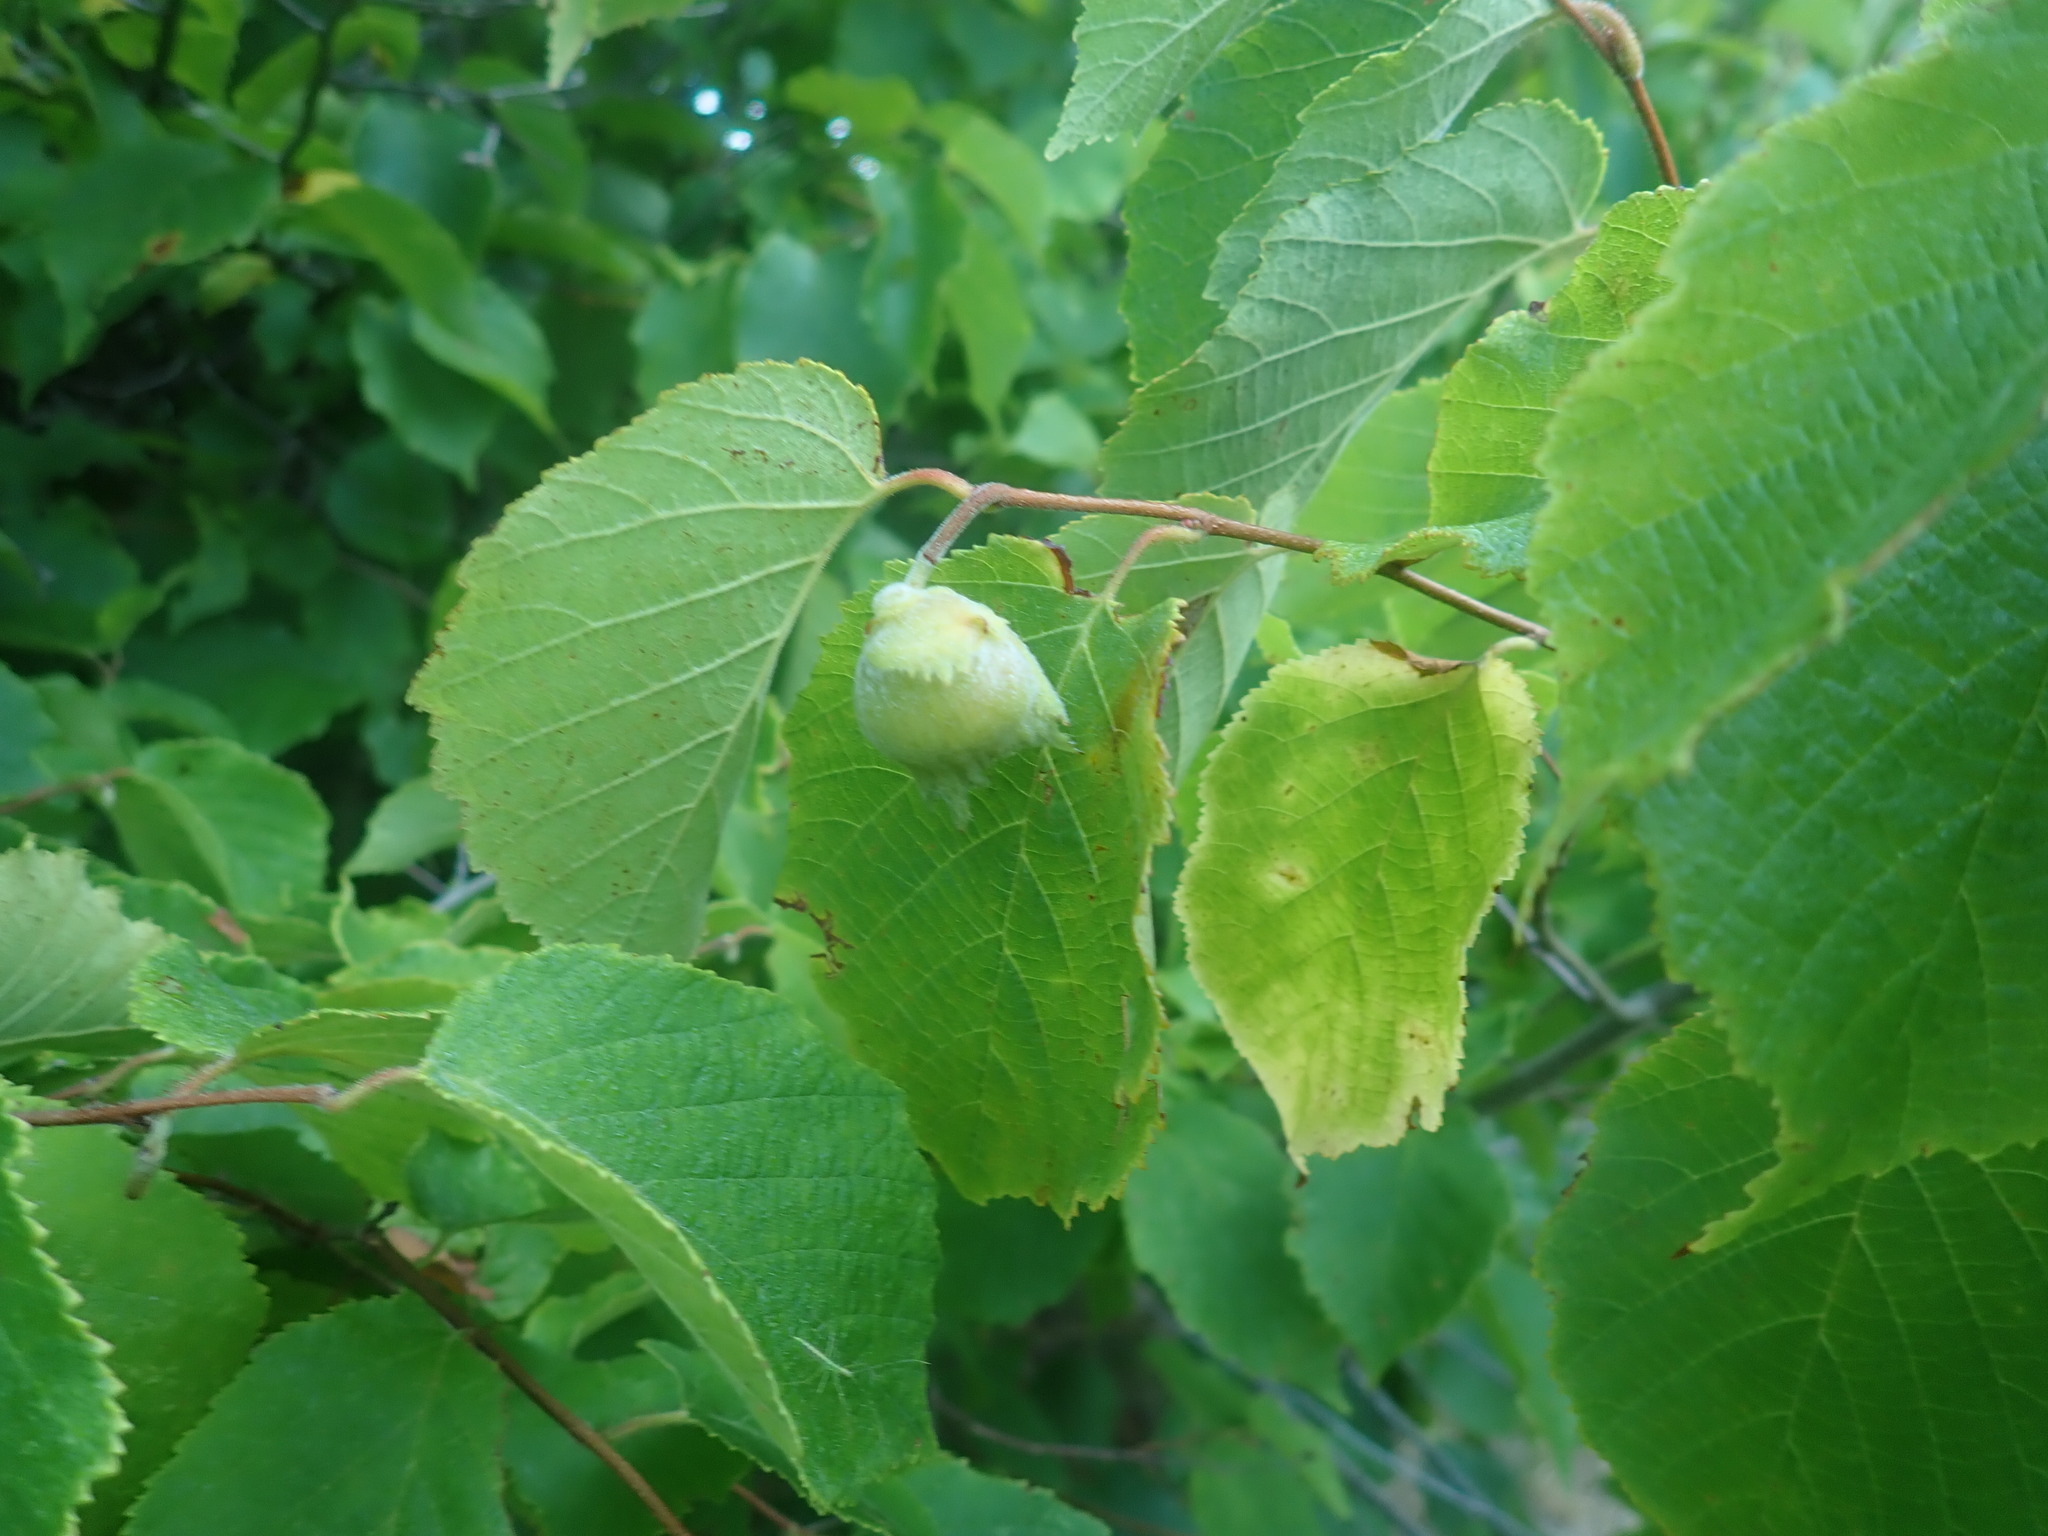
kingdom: Plantae
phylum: Tracheophyta
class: Magnoliopsida
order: Fagales
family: Betulaceae
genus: Corylus
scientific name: Corylus americana
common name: American hazel
